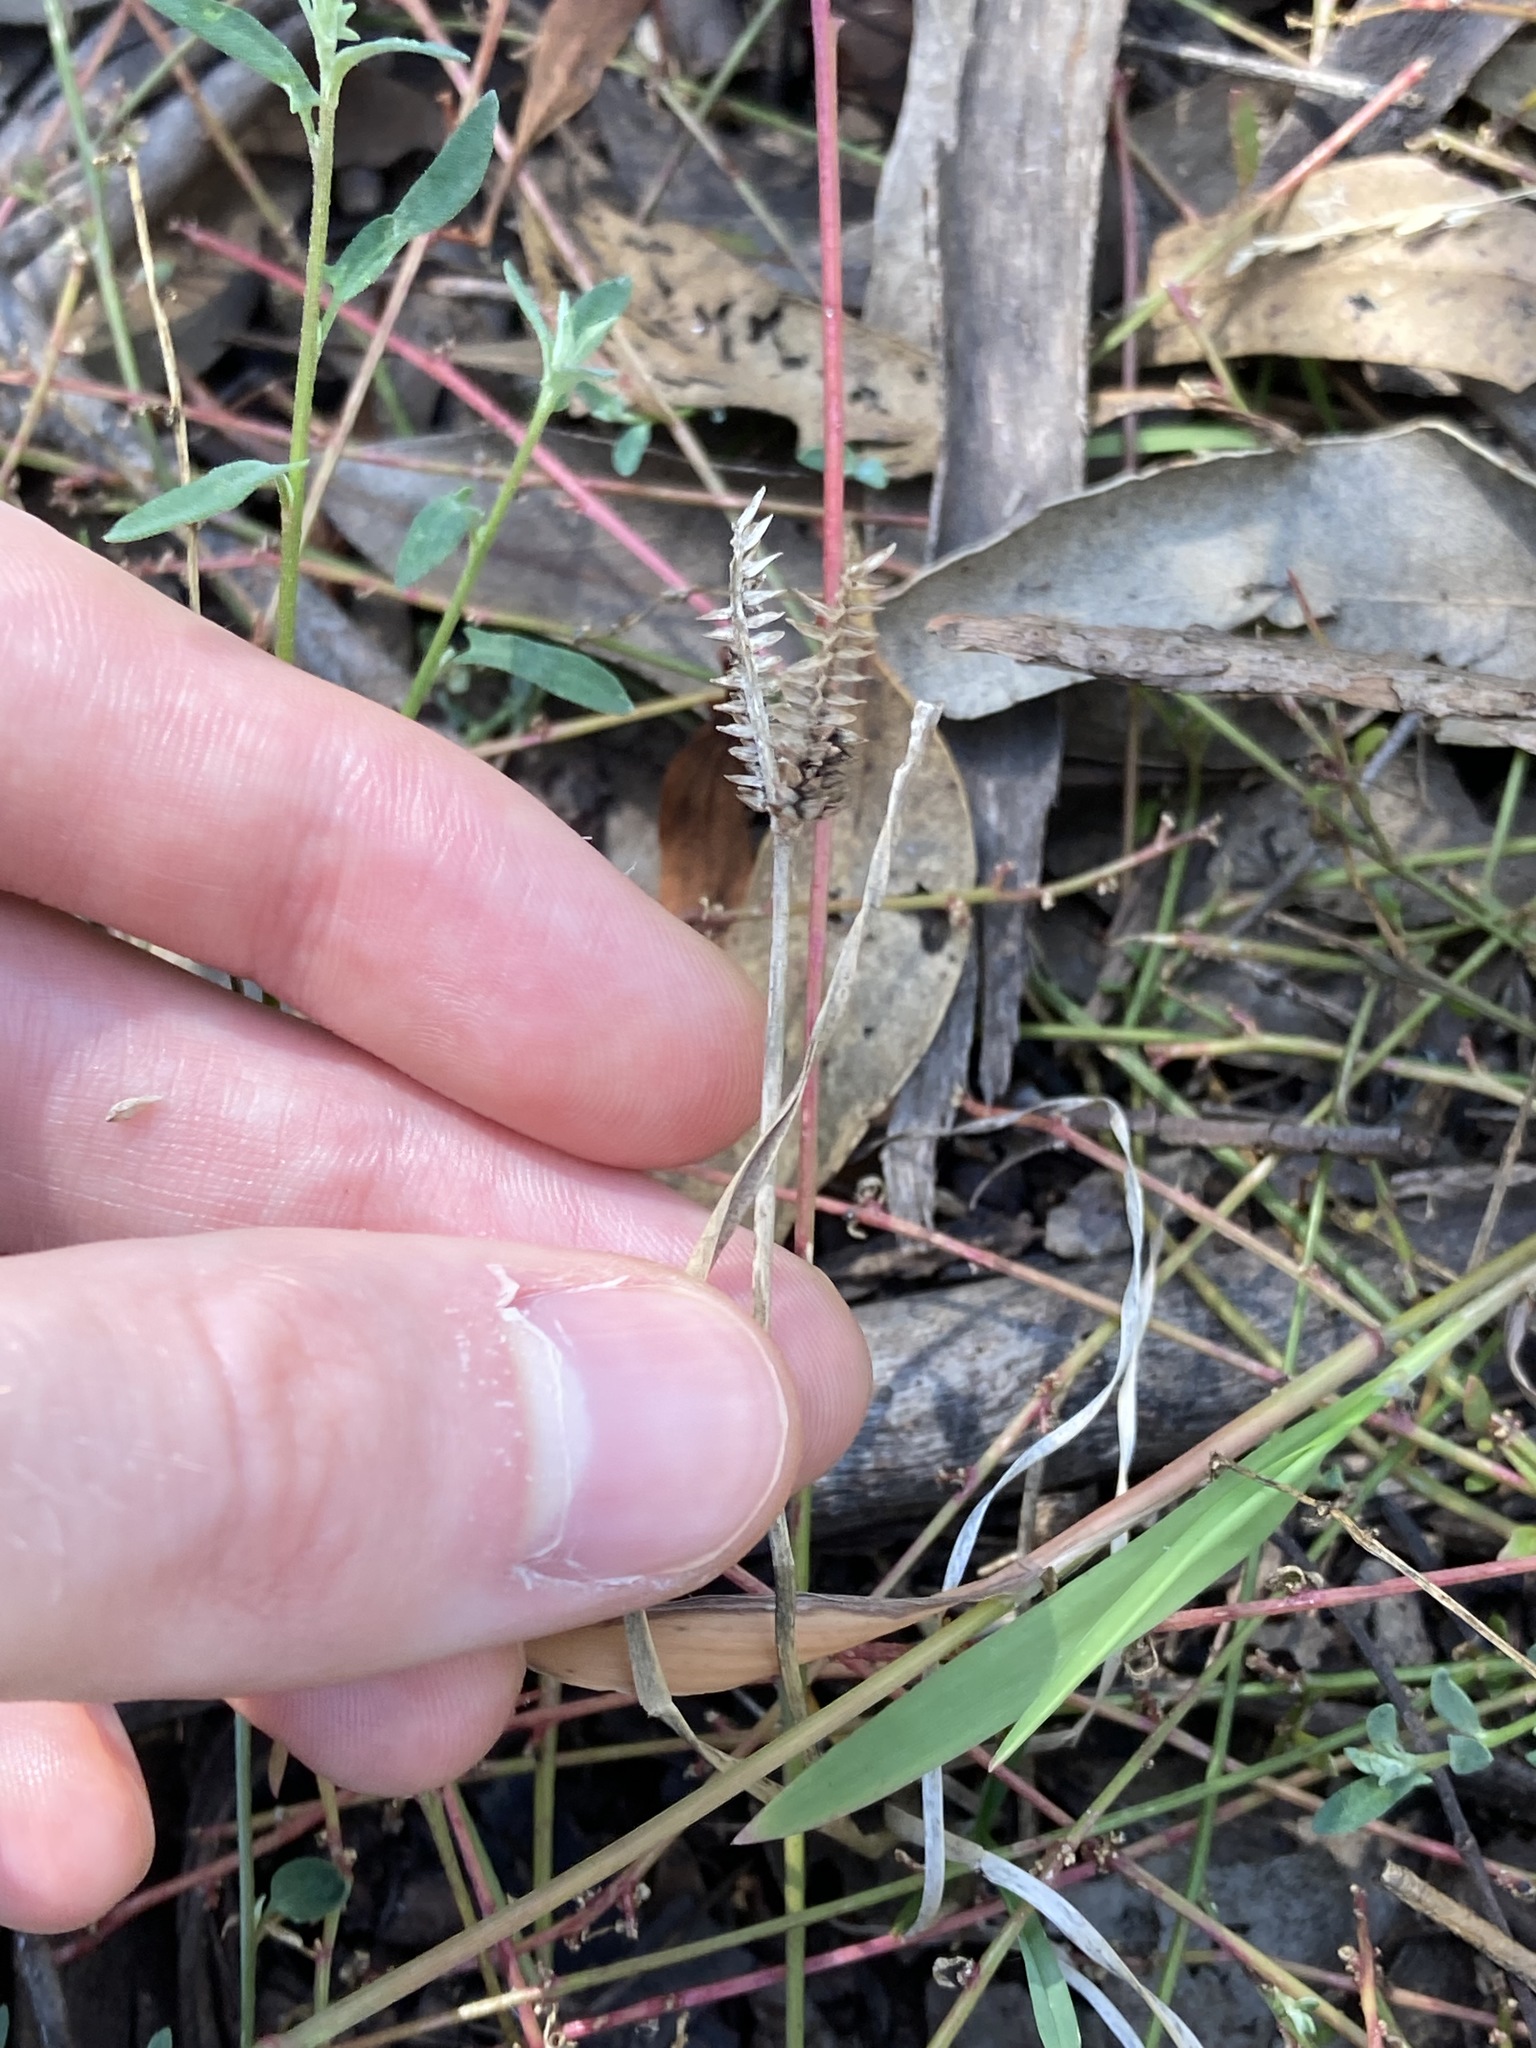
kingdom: Plantae
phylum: Tracheophyta
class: Liliopsida
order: Poales
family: Poaceae
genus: Eleusine
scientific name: Eleusine tristachya
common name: American yard-grass
